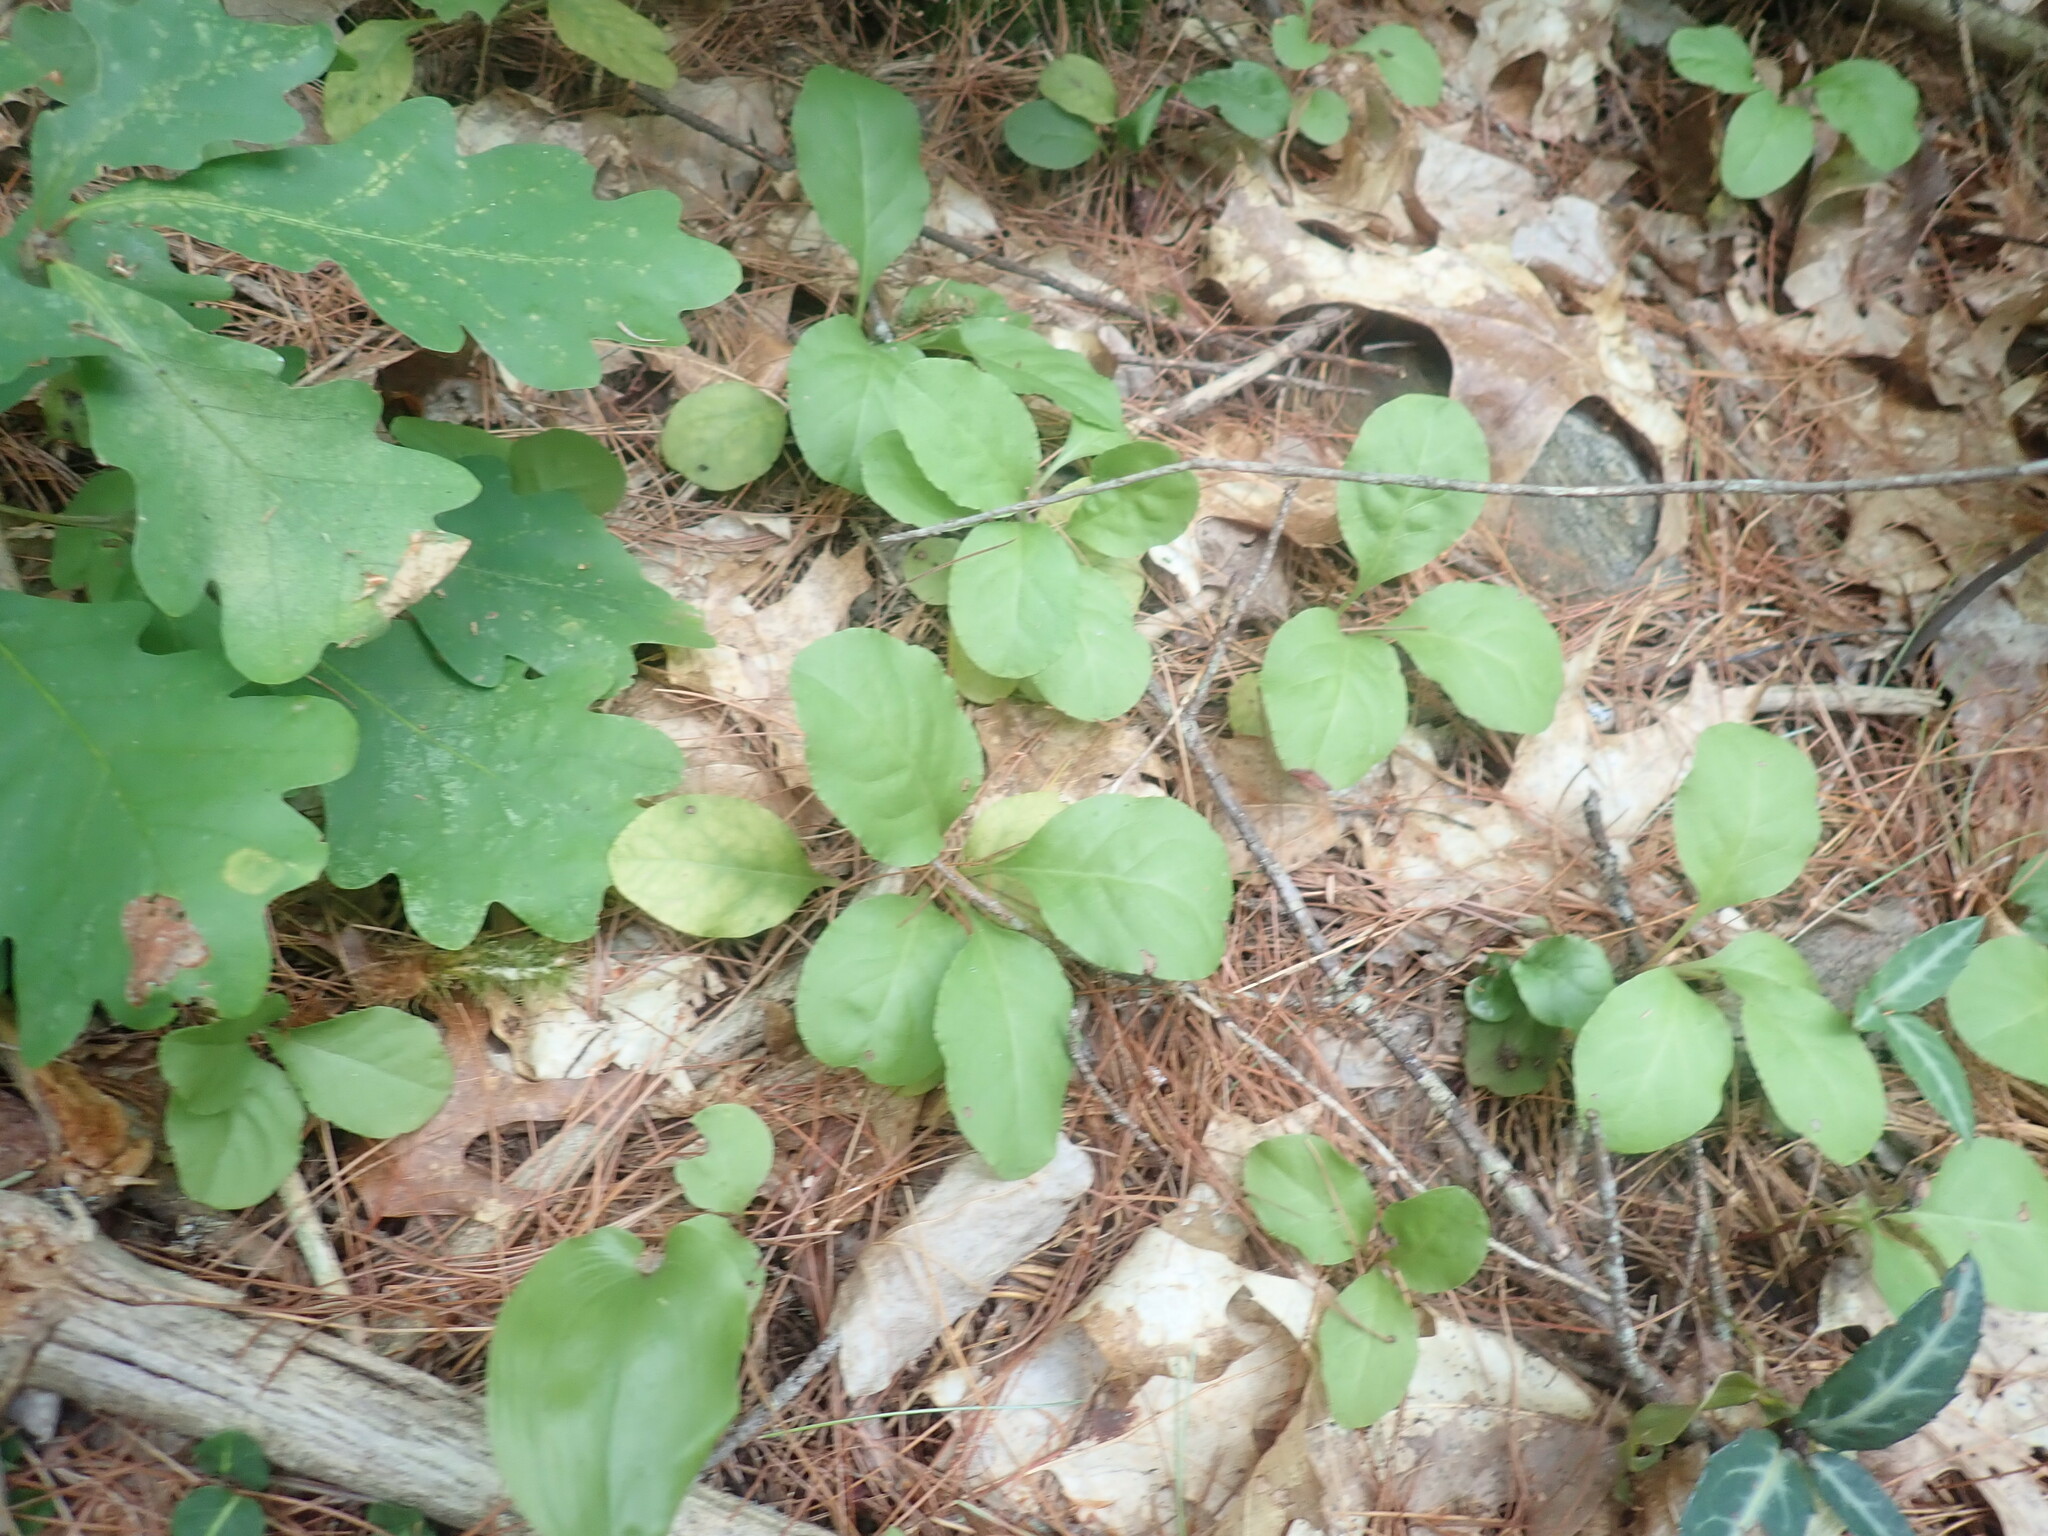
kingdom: Plantae
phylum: Tracheophyta
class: Magnoliopsida
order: Ericales
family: Ericaceae
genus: Pyrola
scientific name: Pyrola elliptica
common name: Shinleaf
